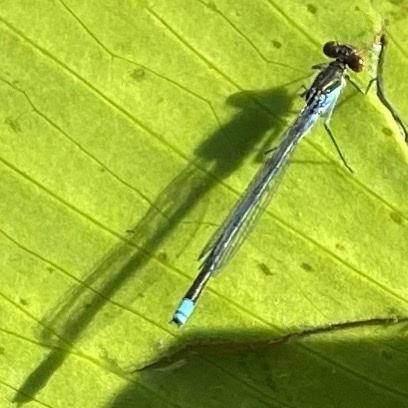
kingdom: Animalia
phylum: Arthropoda
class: Insecta
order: Odonata
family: Coenagrionidae
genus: Erythromma
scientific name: Erythromma najas
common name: Red-eyed damselfly
